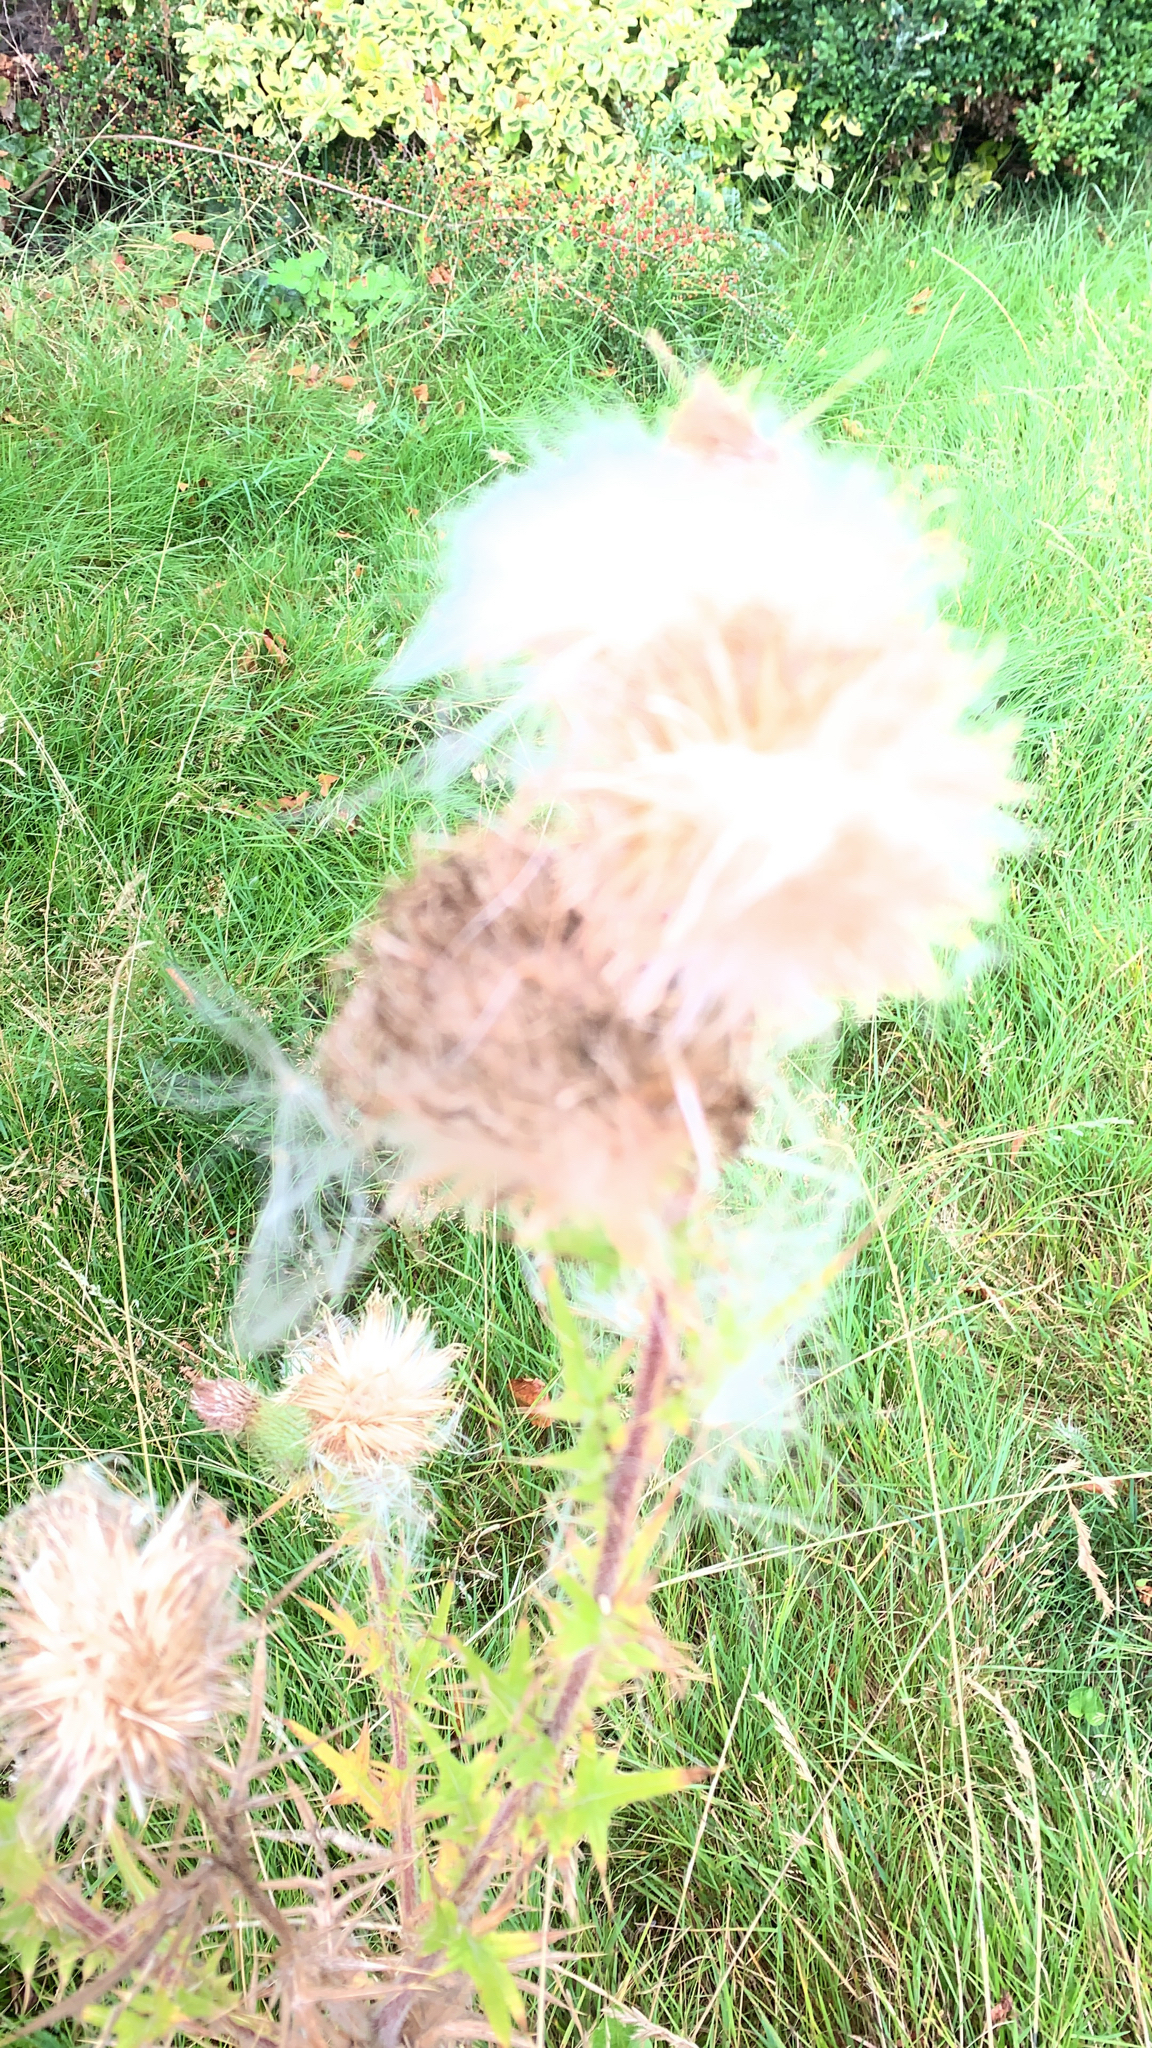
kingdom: Plantae
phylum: Tracheophyta
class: Magnoliopsida
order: Asterales
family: Asteraceae
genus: Cirsium
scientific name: Cirsium vulgare
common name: Bull thistle
